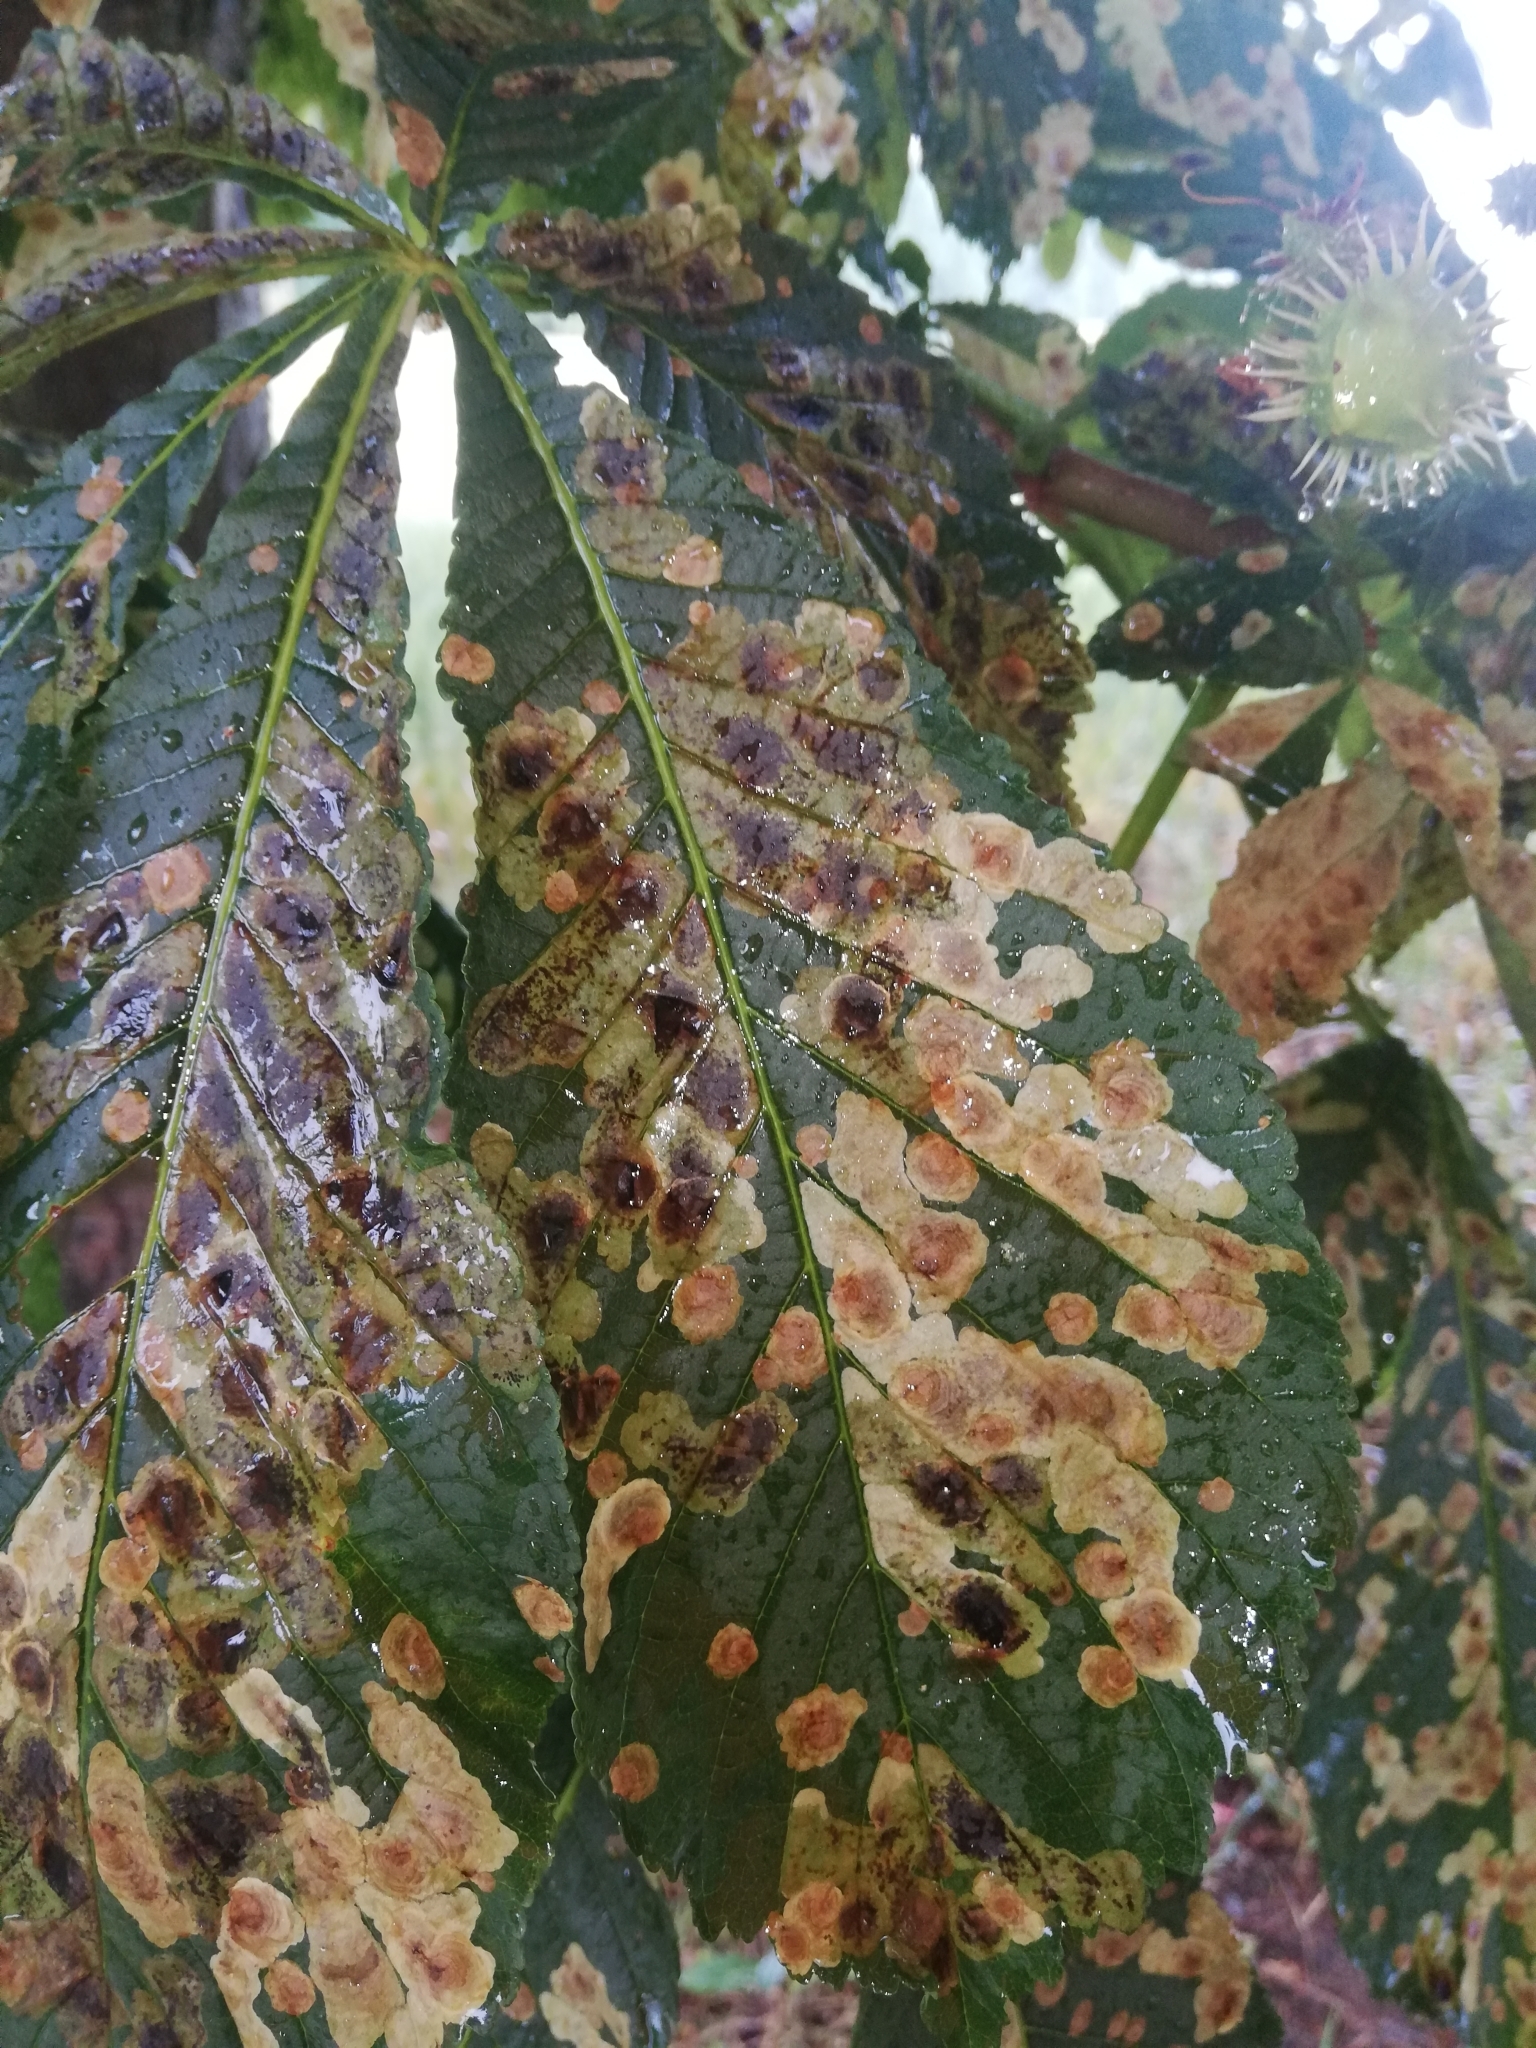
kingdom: Animalia
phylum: Arthropoda
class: Insecta
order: Lepidoptera
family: Gracillariidae
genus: Cameraria
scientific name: Cameraria ohridella
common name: Horse-chestnut leaf-miner
